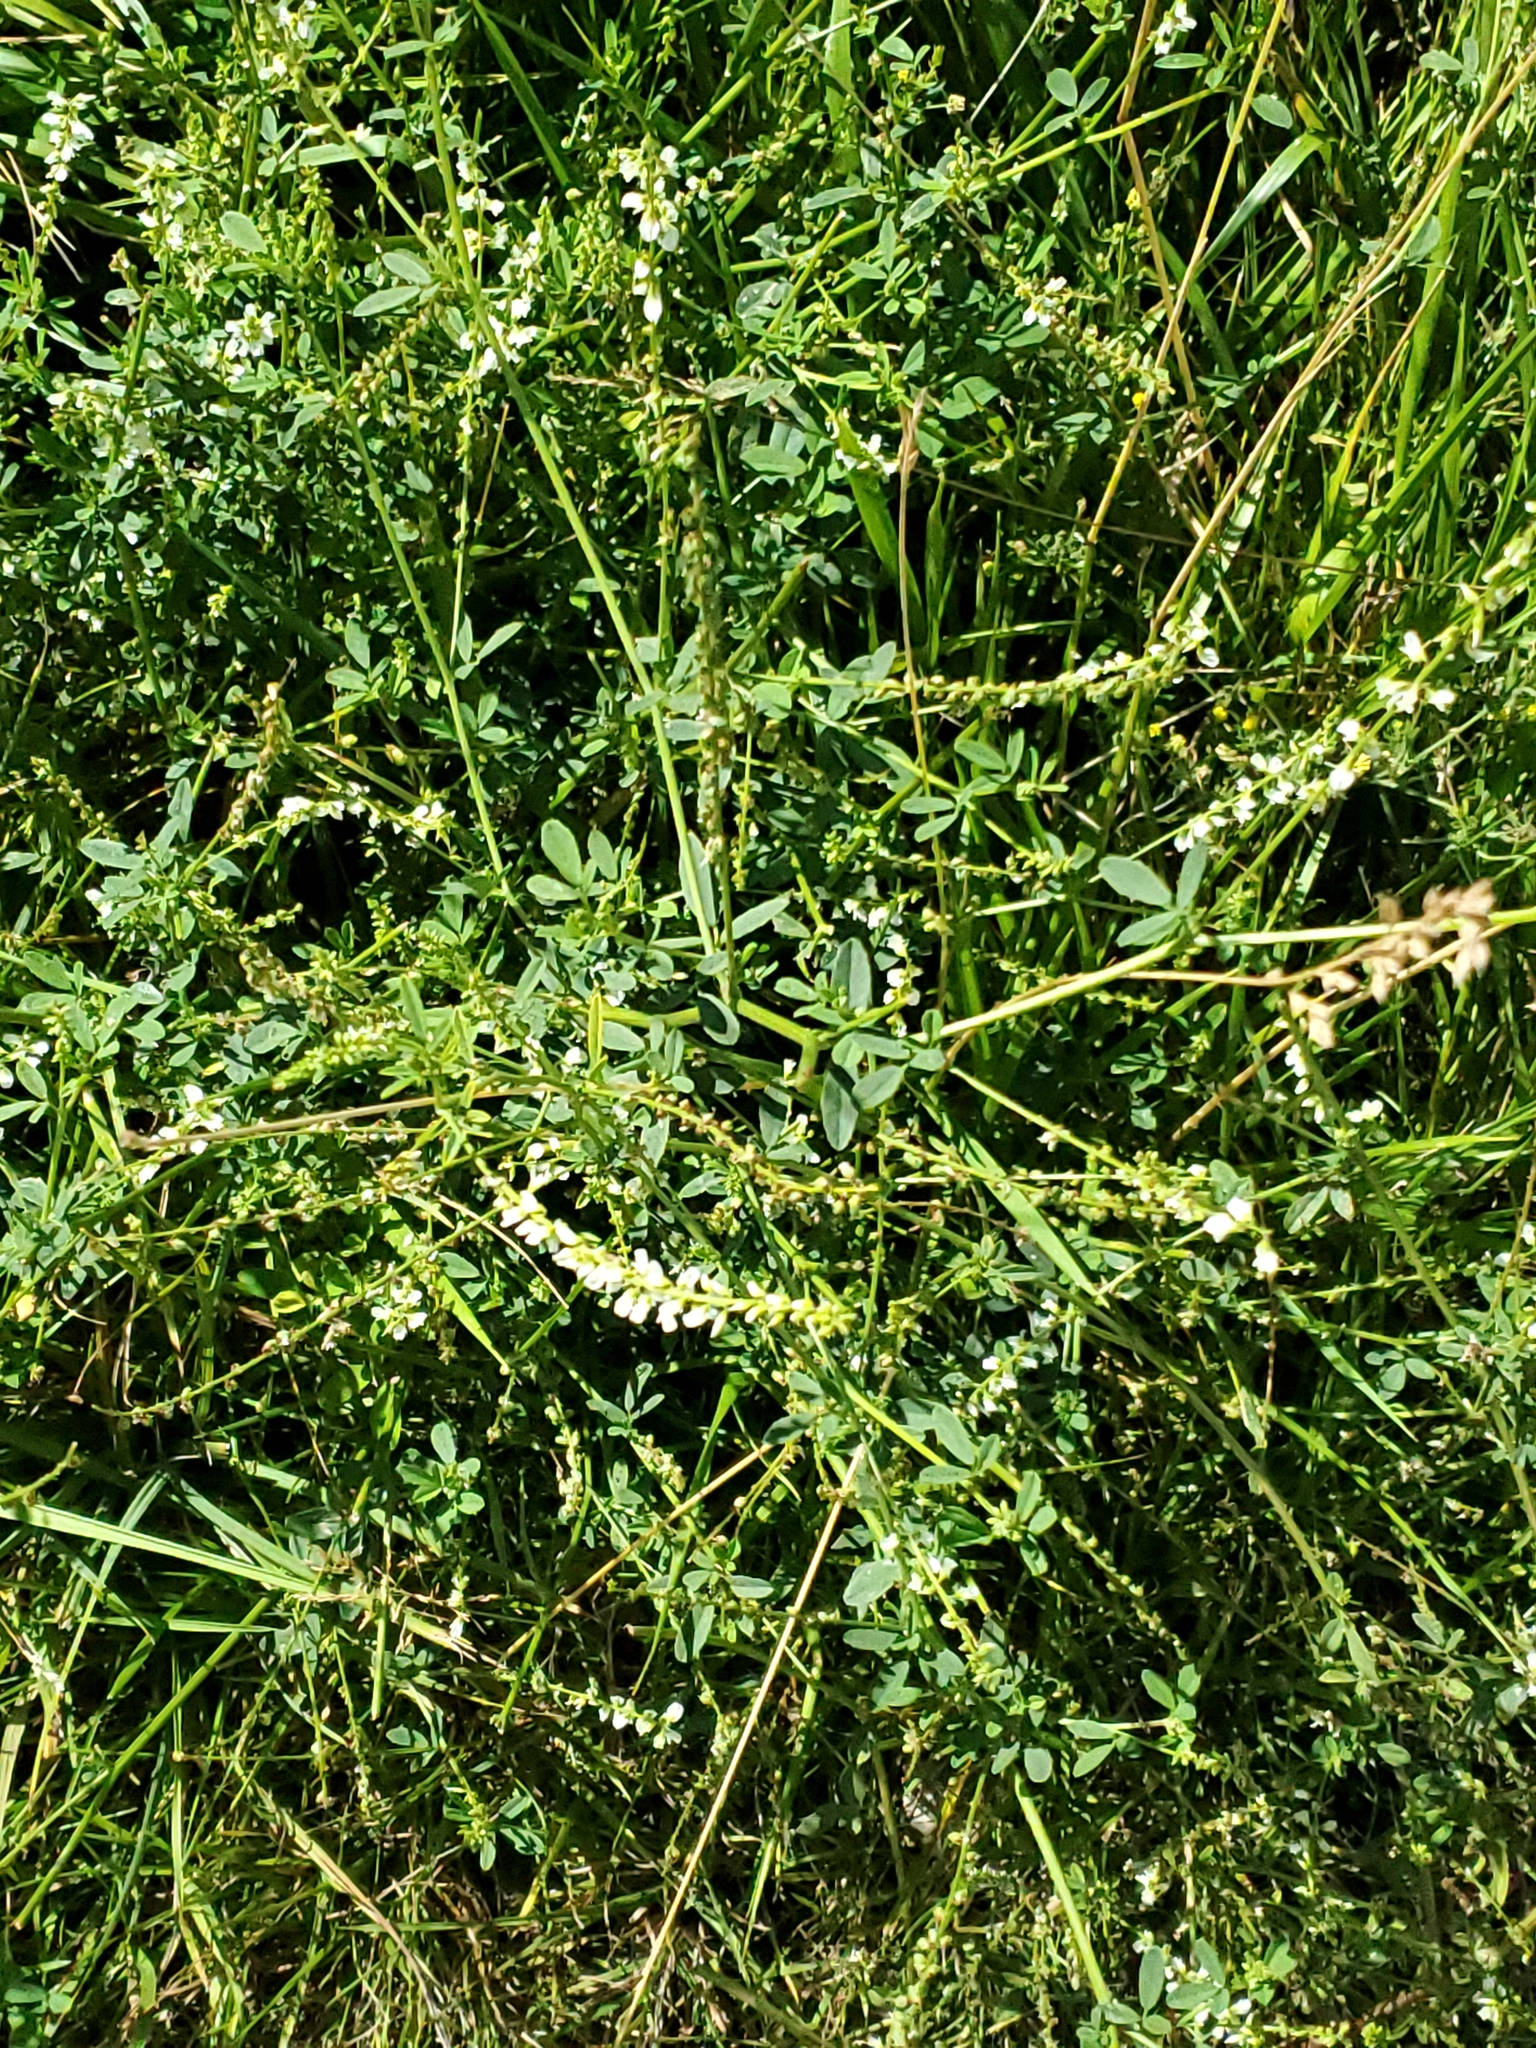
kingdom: Plantae
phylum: Tracheophyta
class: Magnoliopsida
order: Fabales
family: Fabaceae
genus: Melilotus
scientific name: Melilotus albus
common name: White melilot
